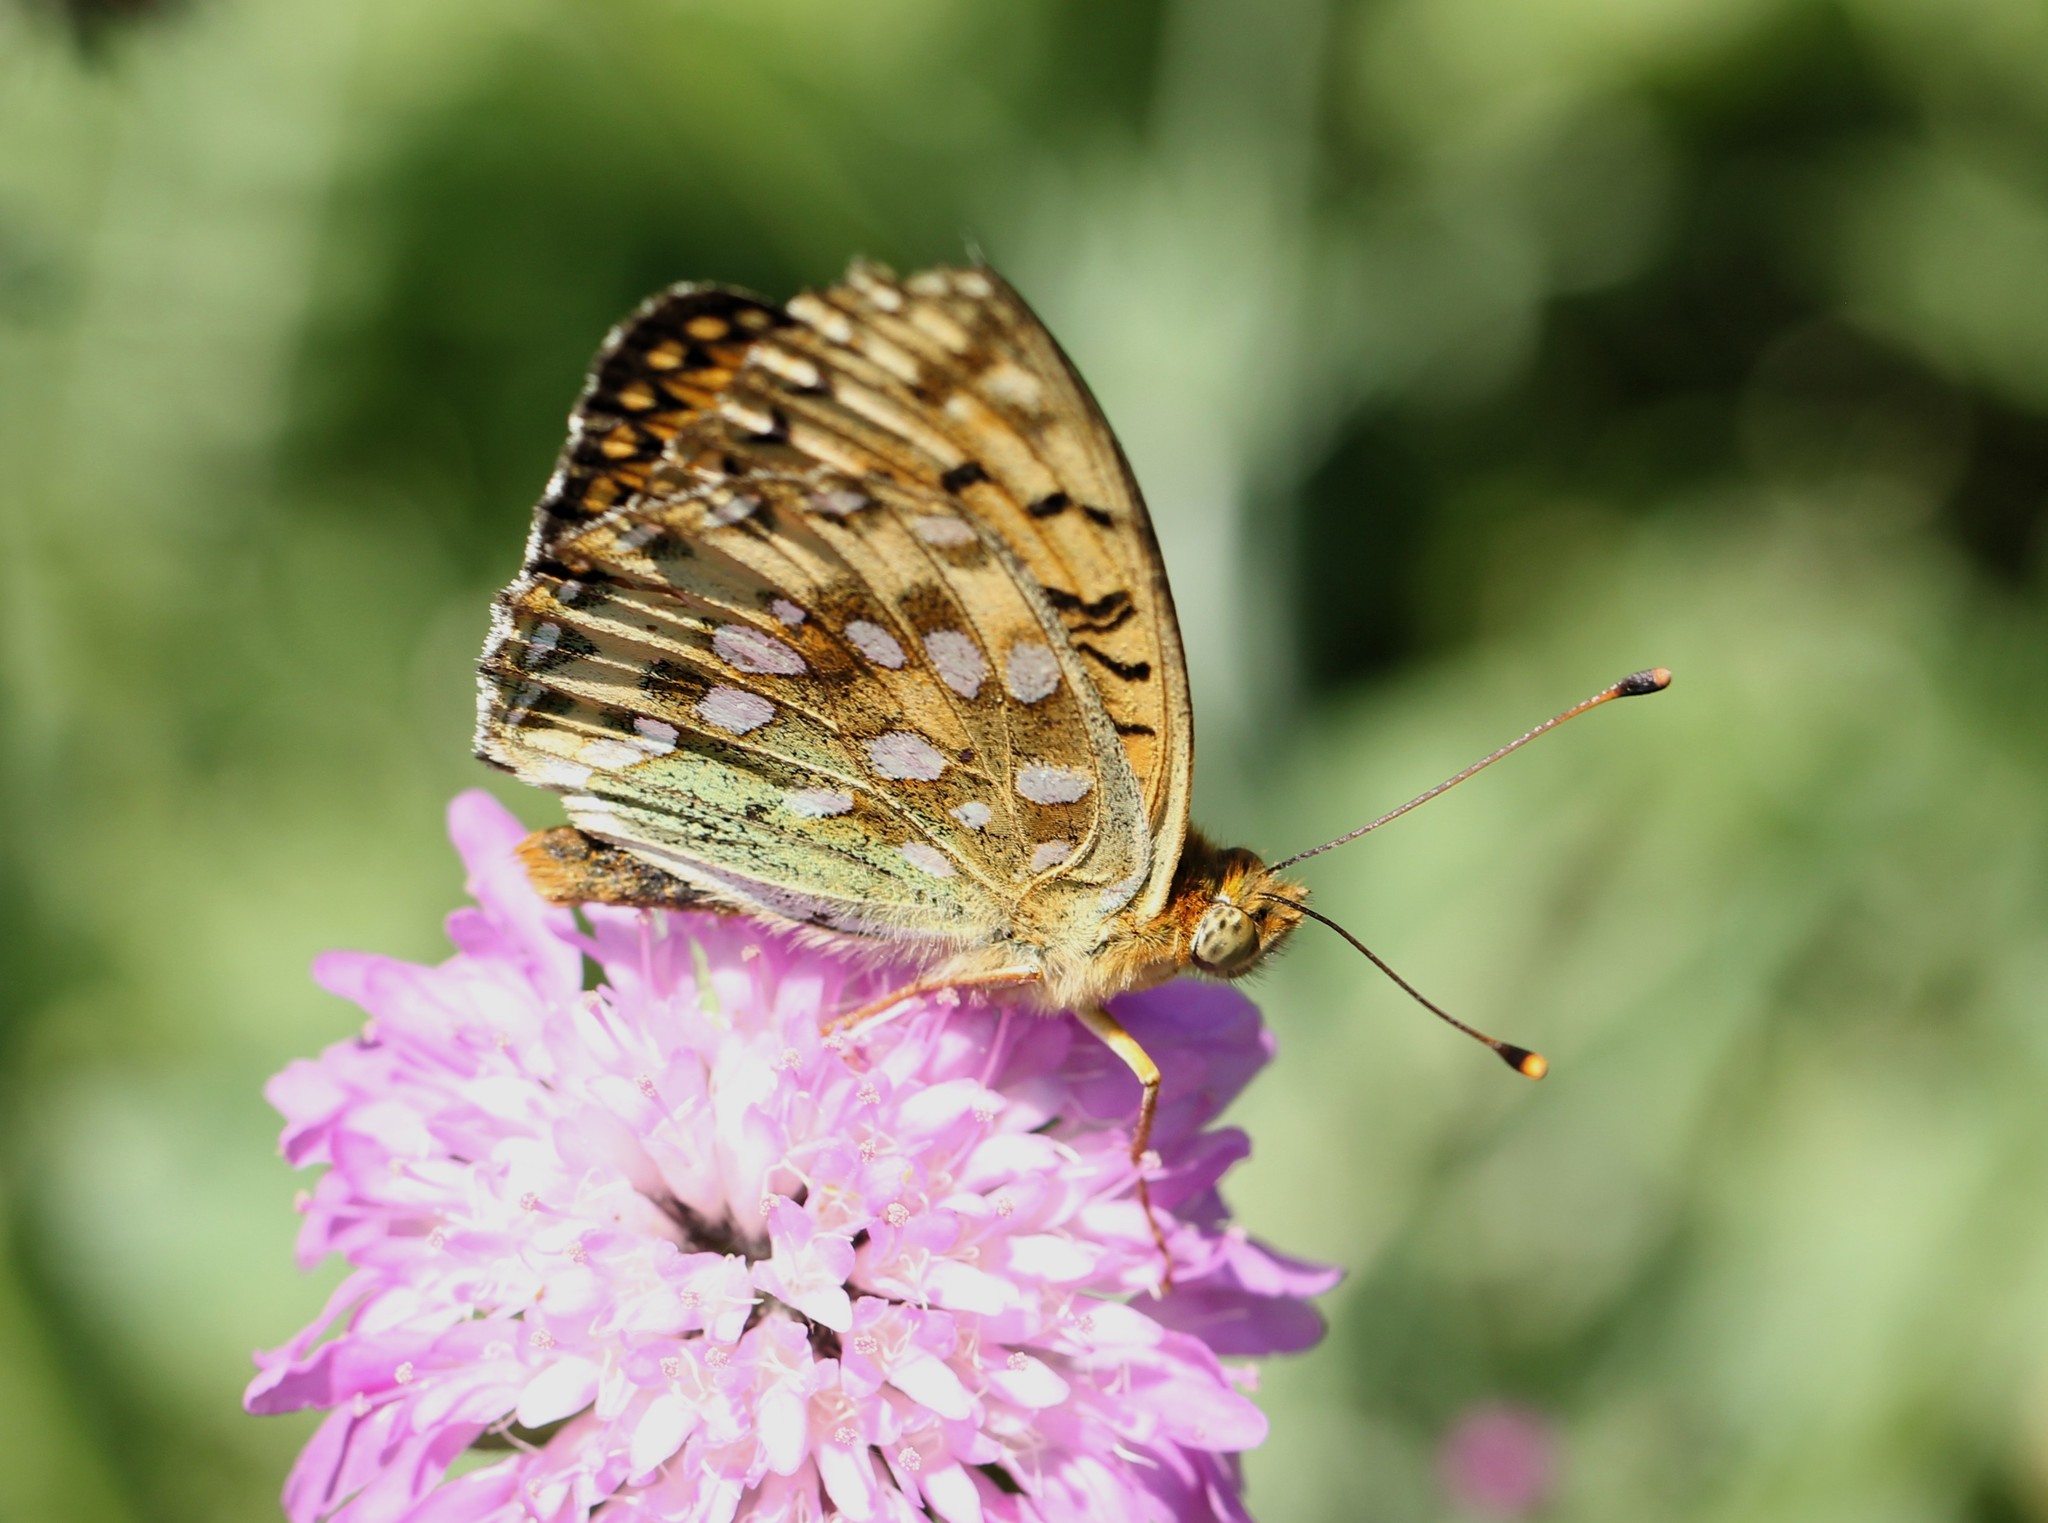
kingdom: Animalia
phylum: Arthropoda
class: Insecta
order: Lepidoptera
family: Nymphalidae
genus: Speyeria
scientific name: Speyeria aglaja
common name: Dark green fritillary
